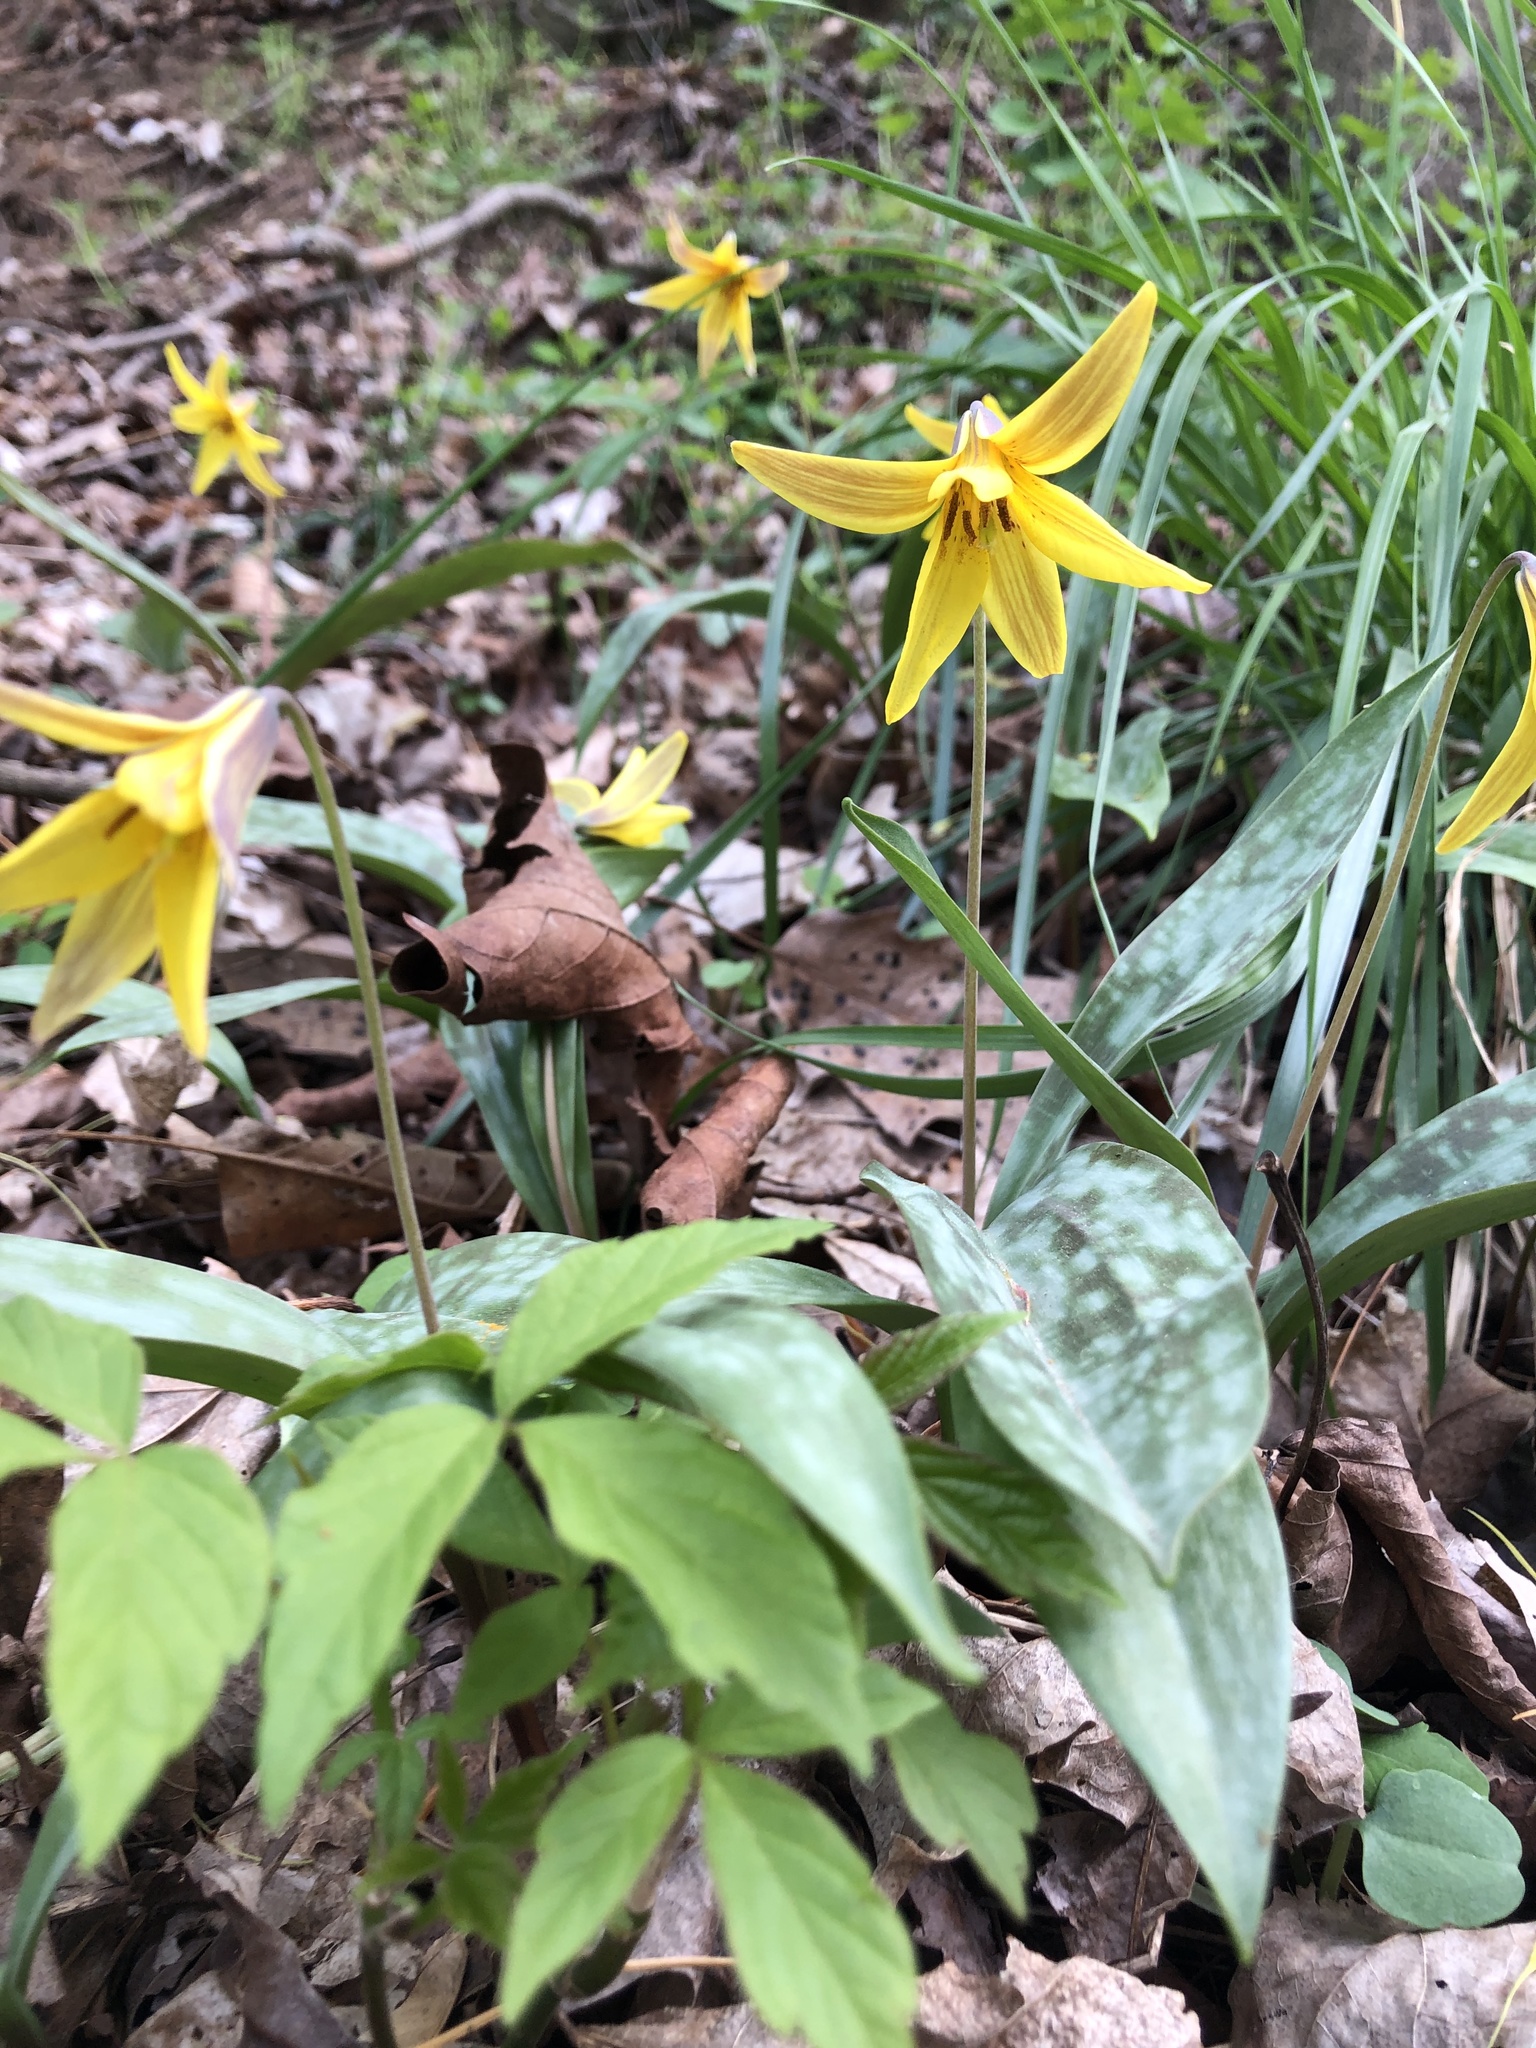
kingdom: Plantae
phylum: Tracheophyta
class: Liliopsida
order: Liliales
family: Liliaceae
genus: Erythronium
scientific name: Erythronium americanum
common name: Yellow adder's-tongue
